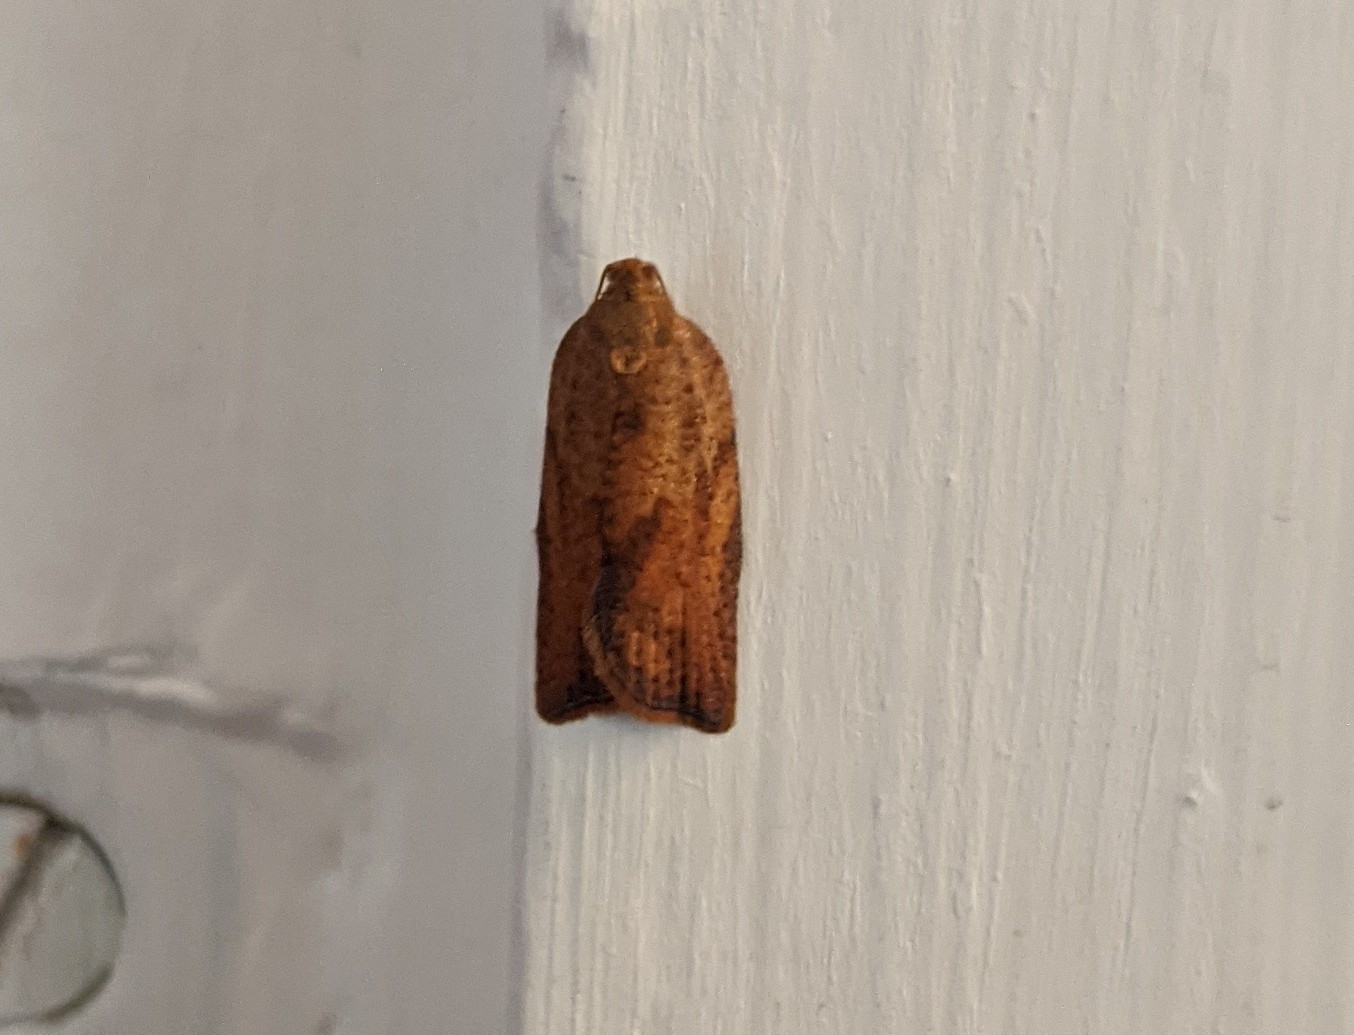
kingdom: Animalia
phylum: Arthropoda
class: Insecta
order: Lepidoptera
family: Tortricidae
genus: Epiphyas
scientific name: Epiphyas postvittana
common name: Light brown apple moth
